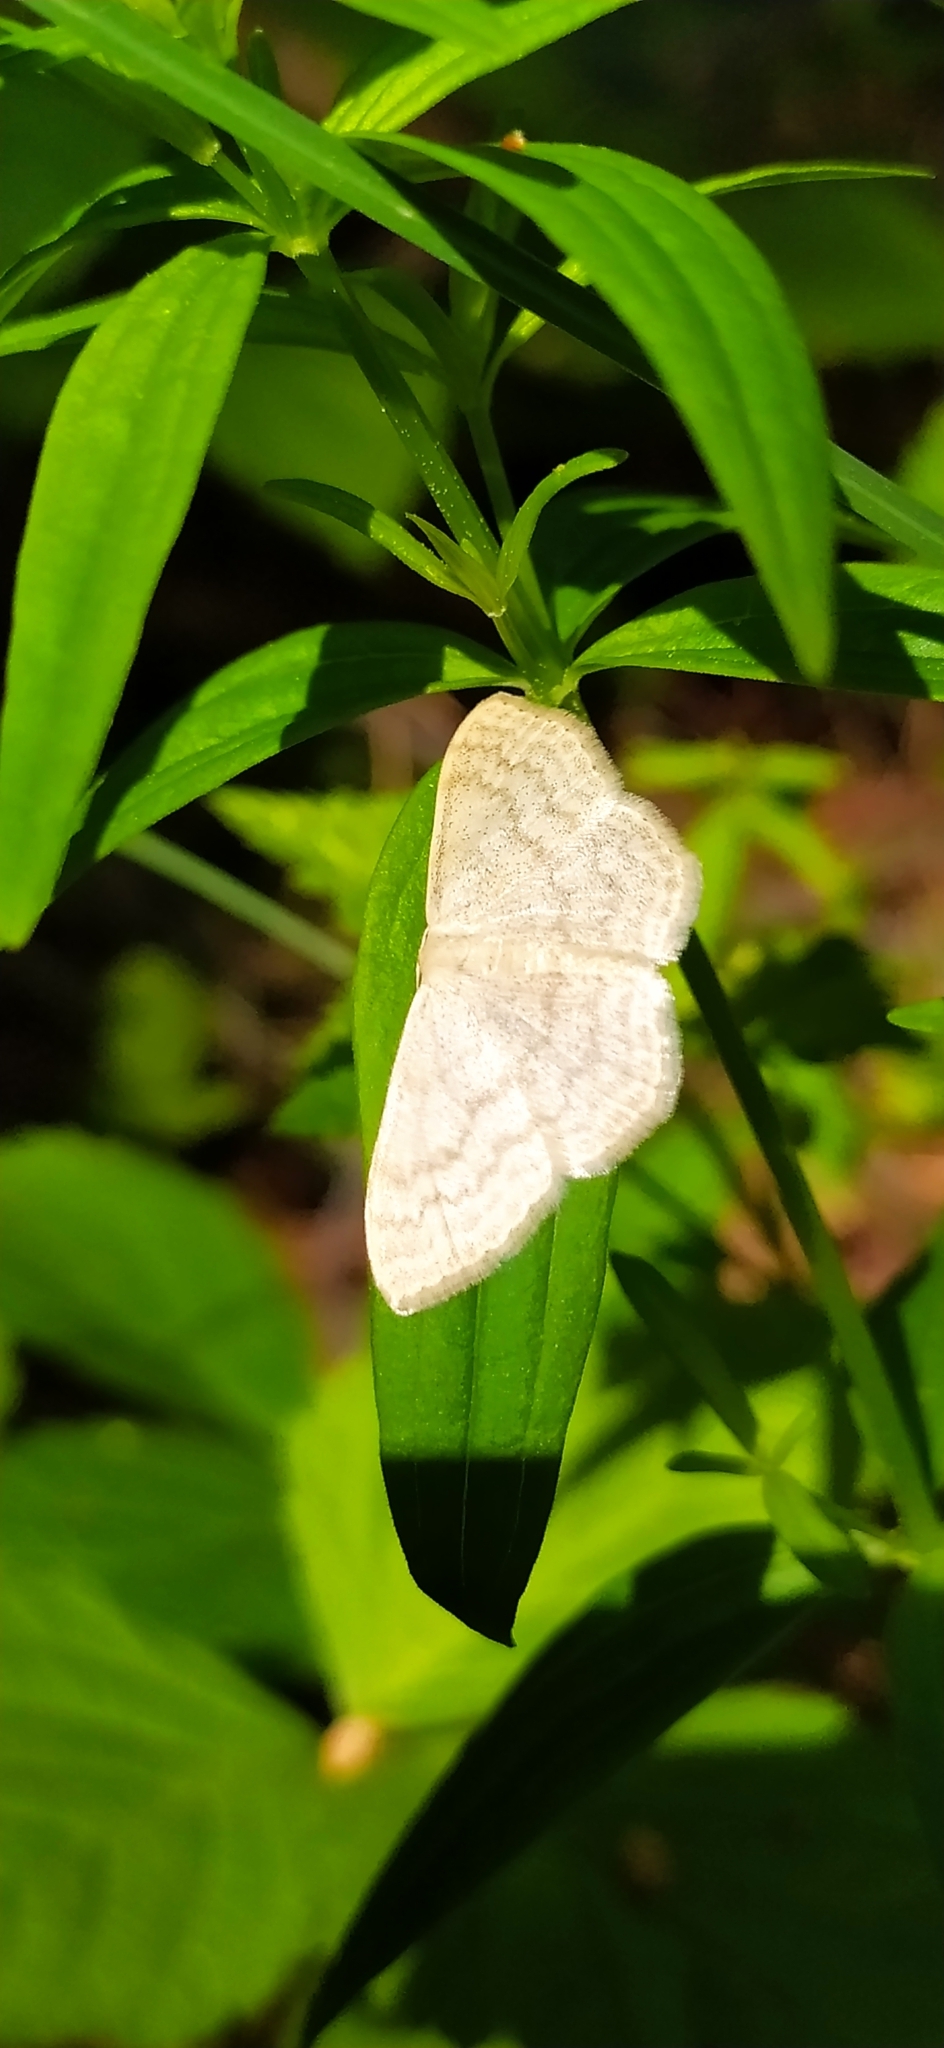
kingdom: Animalia
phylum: Arthropoda
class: Insecta
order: Lepidoptera
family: Geometridae
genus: Scopula
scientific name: Scopula floslactata
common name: Cream wave
